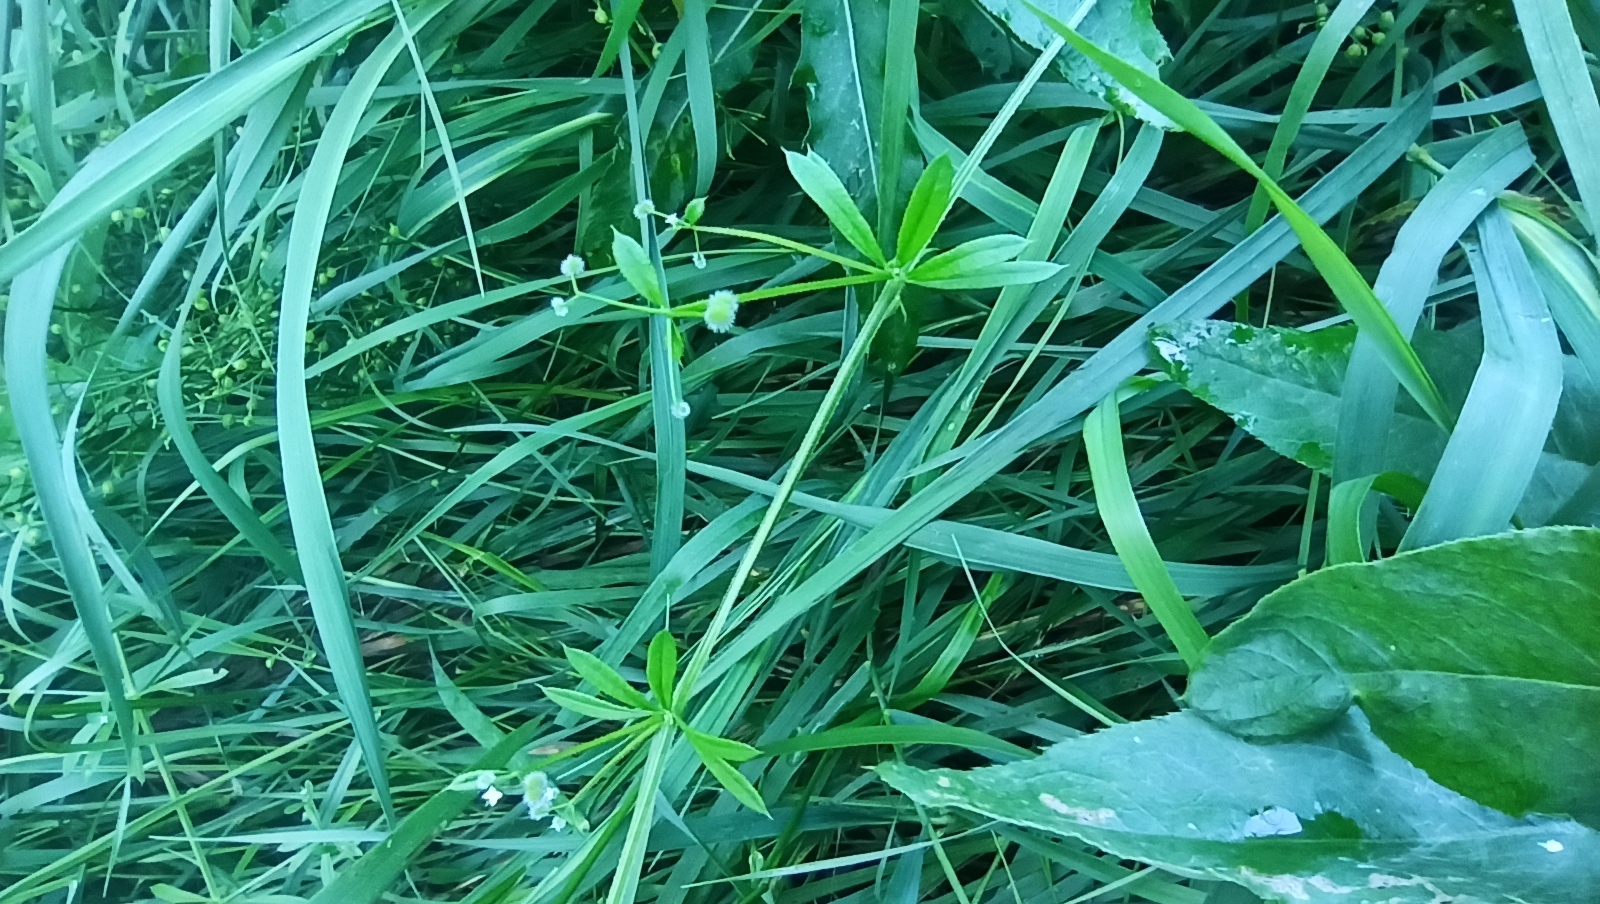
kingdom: Plantae
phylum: Tracheophyta
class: Magnoliopsida
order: Gentianales
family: Rubiaceae
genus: Galium
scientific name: Galium aparine
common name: Cleavers
